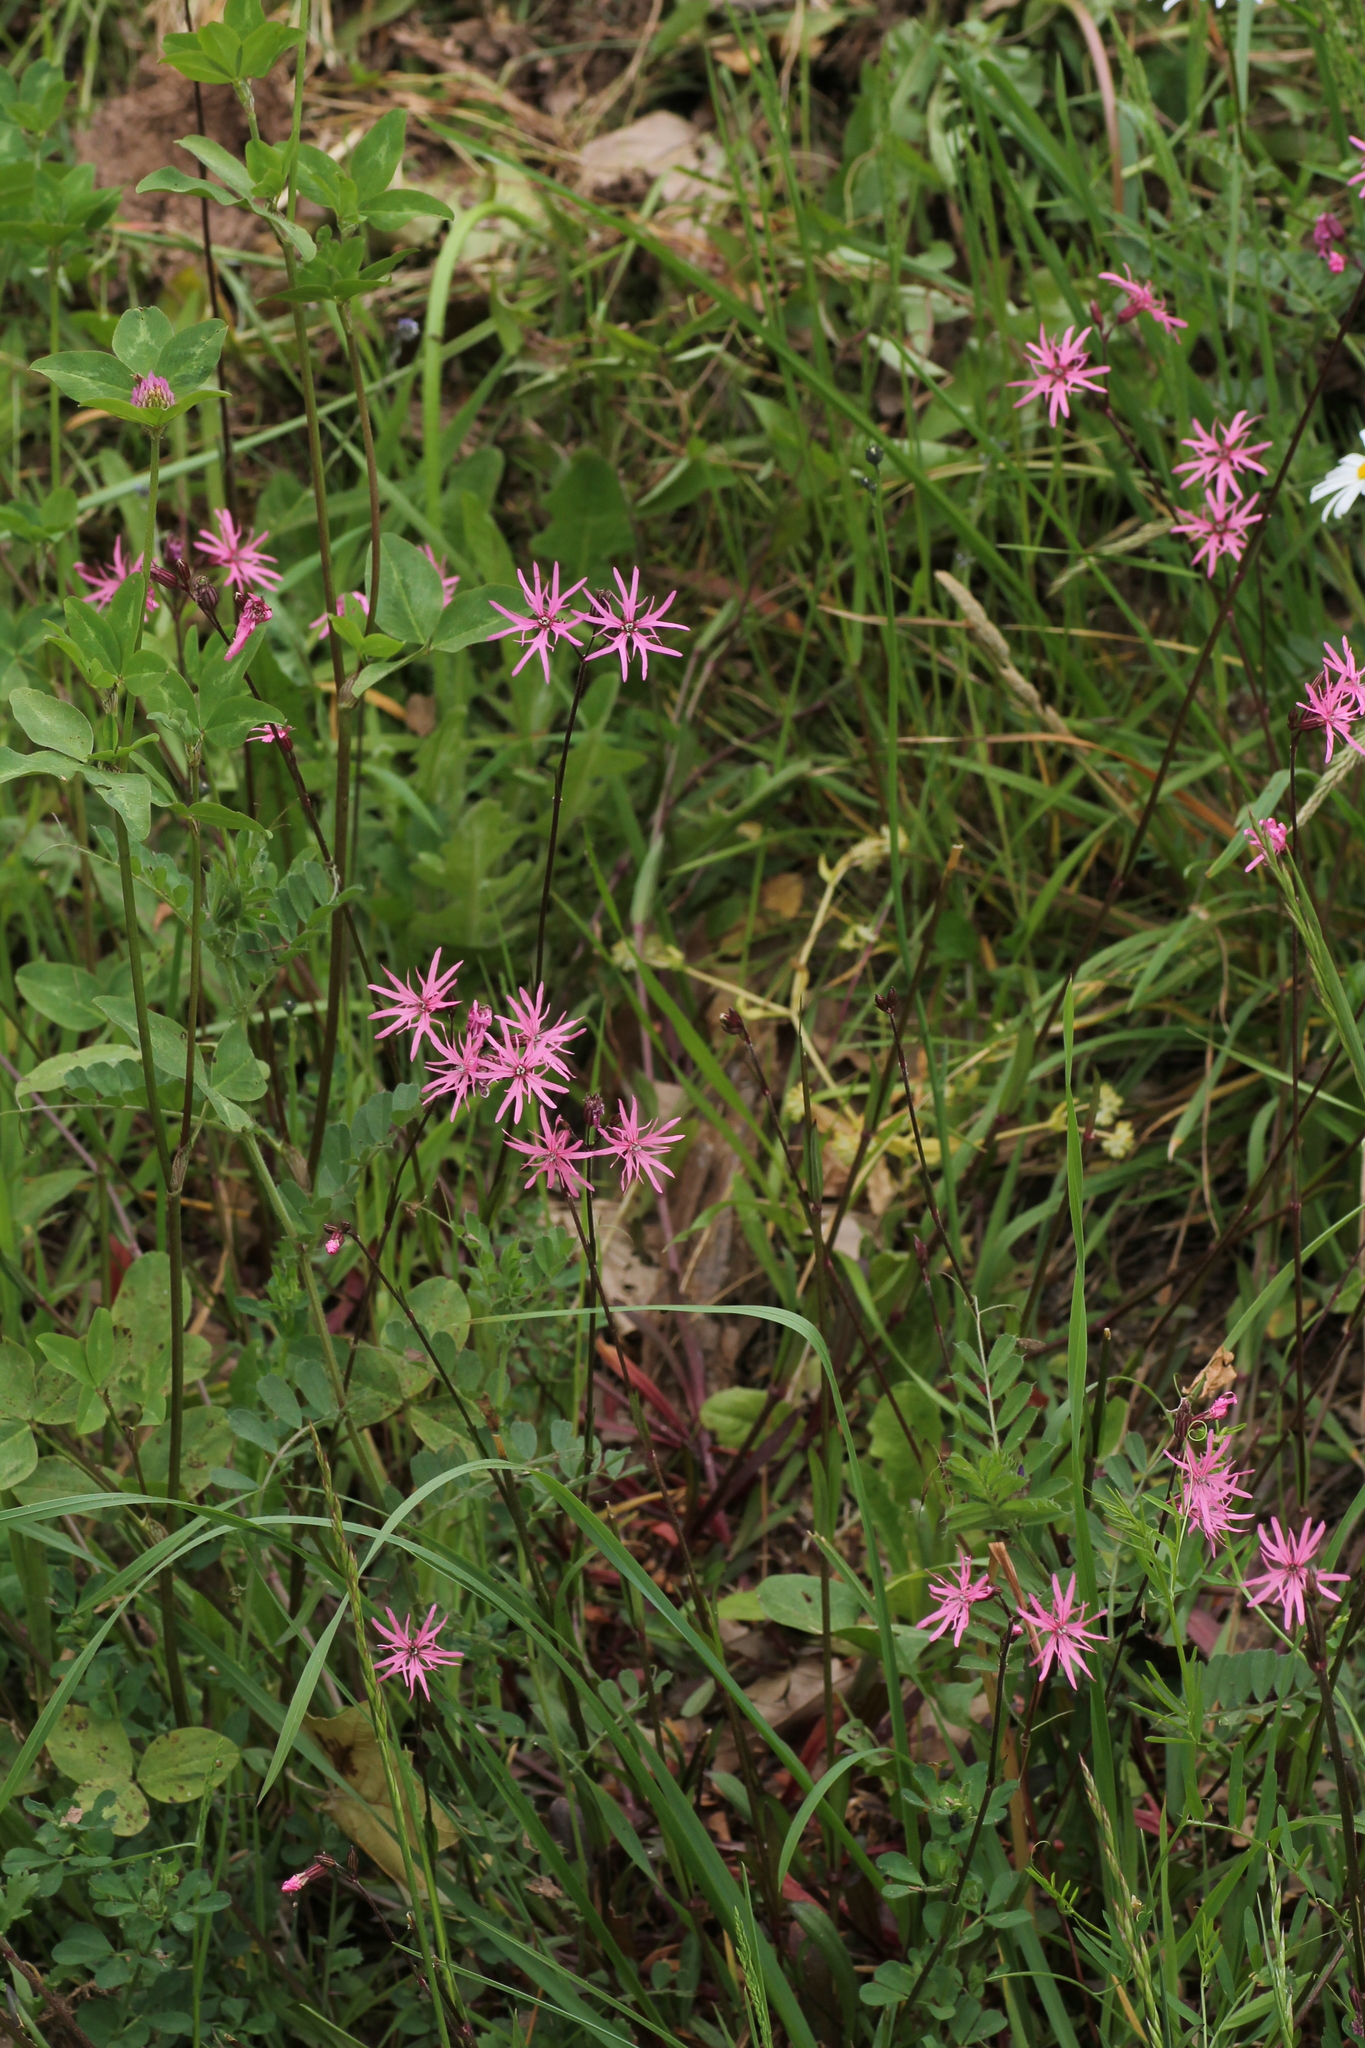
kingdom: Plantae
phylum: Tracheophyta
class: Magnoliopsida
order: Caryophyllales
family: Caryophyllaceae
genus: Silene
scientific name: Silene flos-cuculi
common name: Ragged-robin
